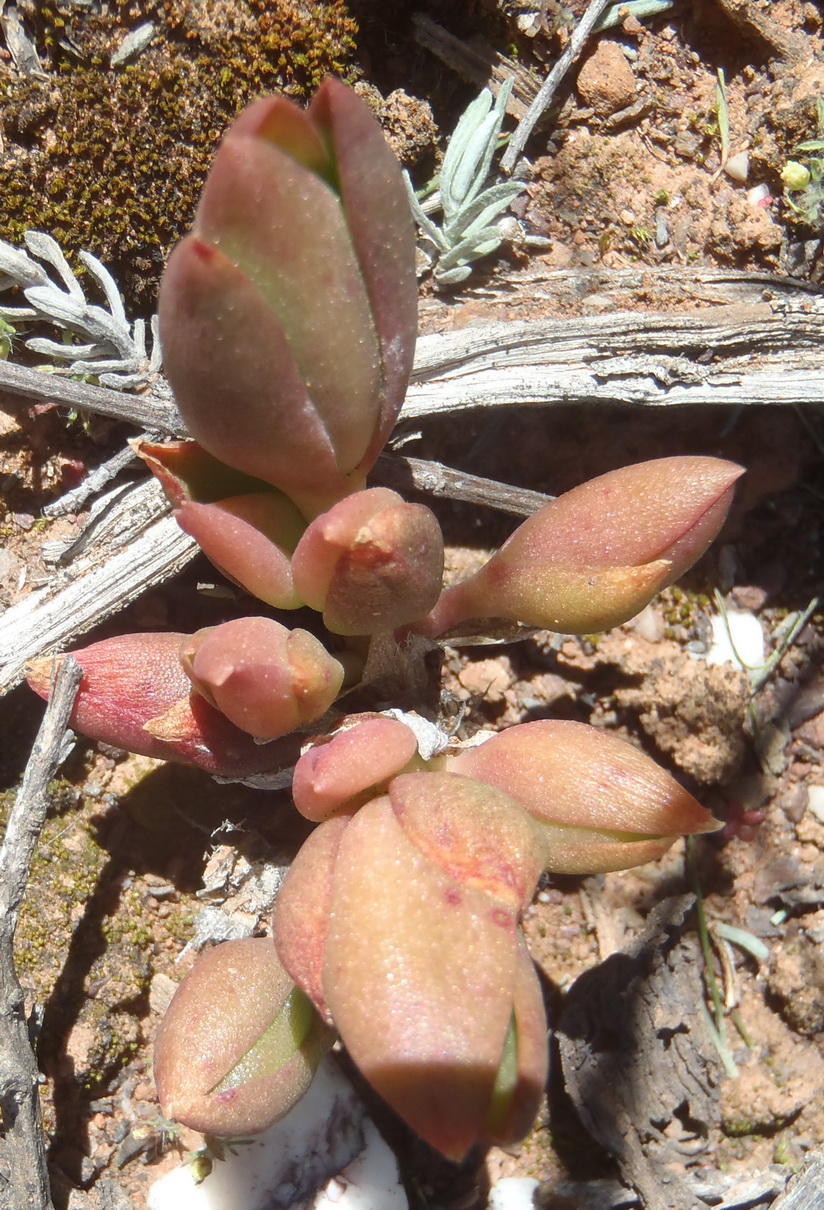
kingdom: Plantae
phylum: Tracheophyta
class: Magnoliopsida
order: Caryophyllales
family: Aizoaceae
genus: Mesembryanthemum
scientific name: Mesembryanthemum tortuosum
